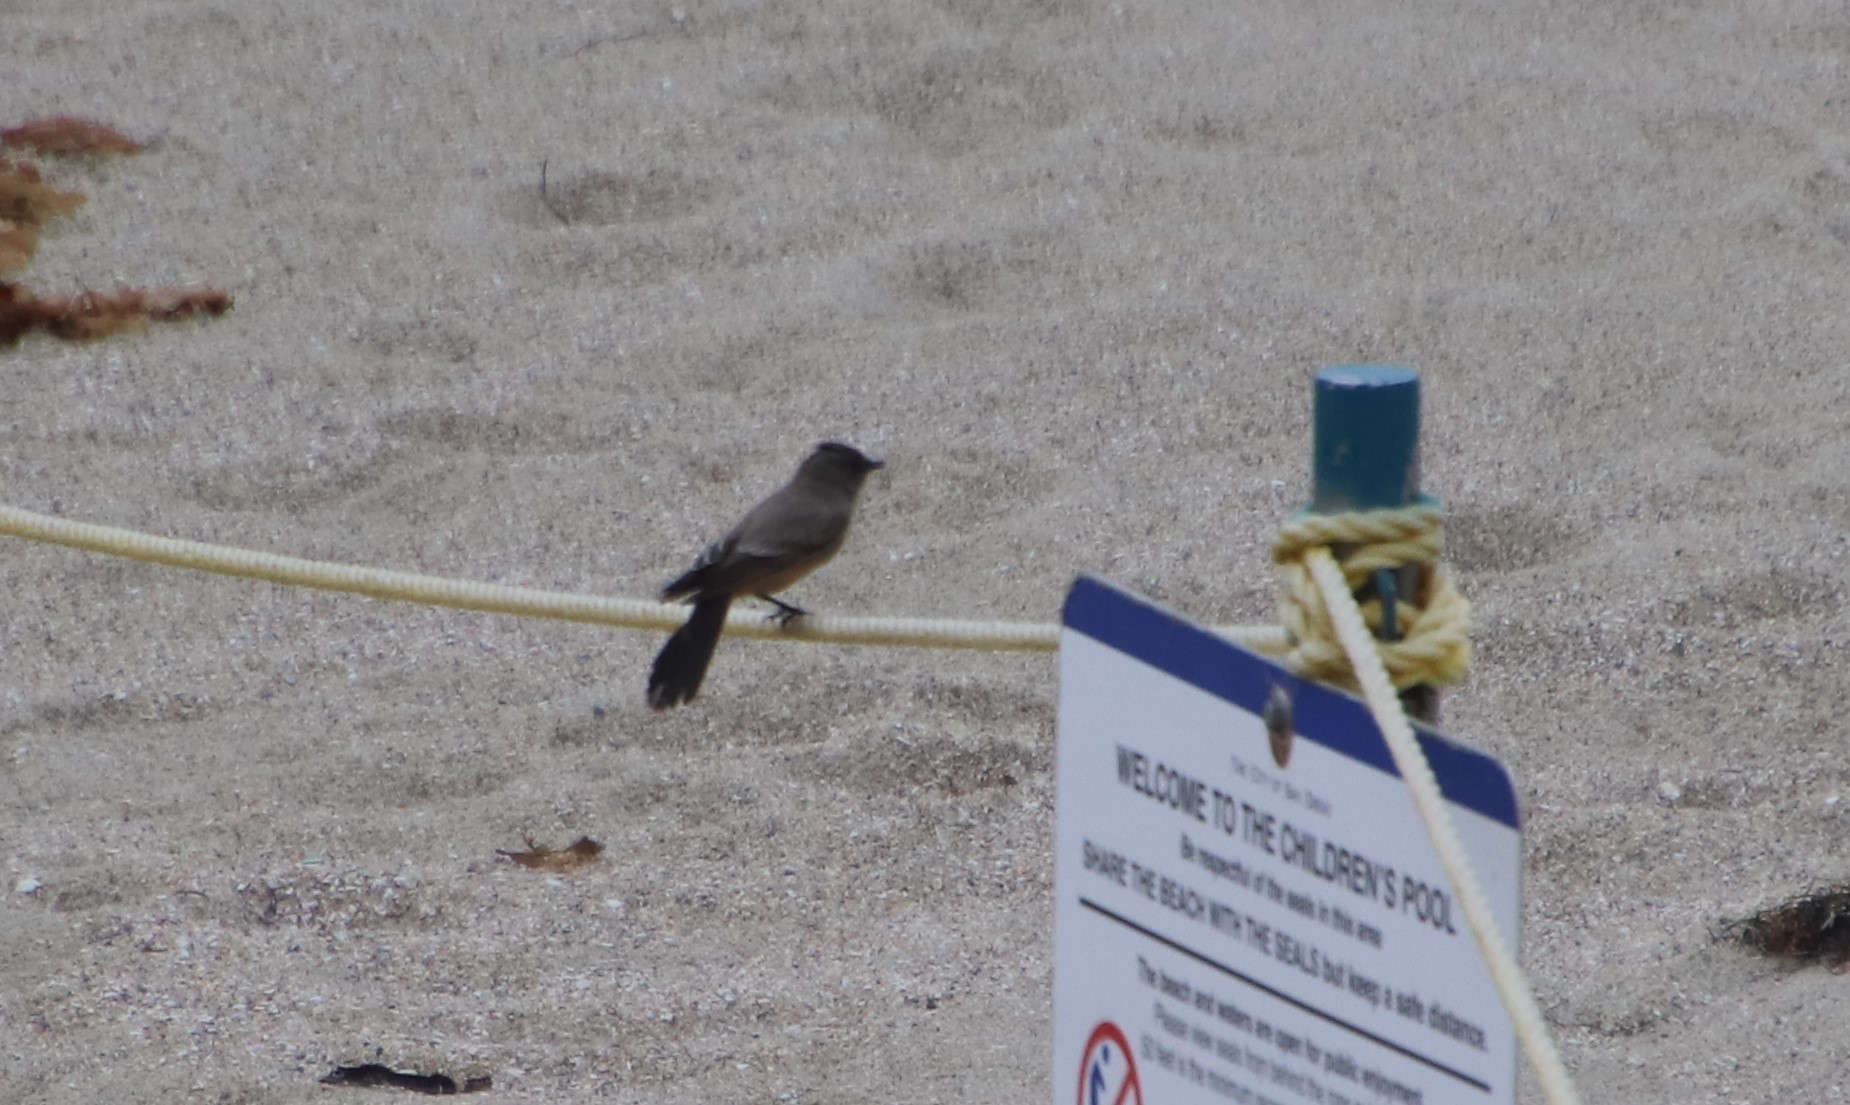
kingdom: Animalia
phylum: Chordata
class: Aves
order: Passeriformes
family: Tyrannidae
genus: Sayornis
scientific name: Sayornis saya
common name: Say's phoebe
